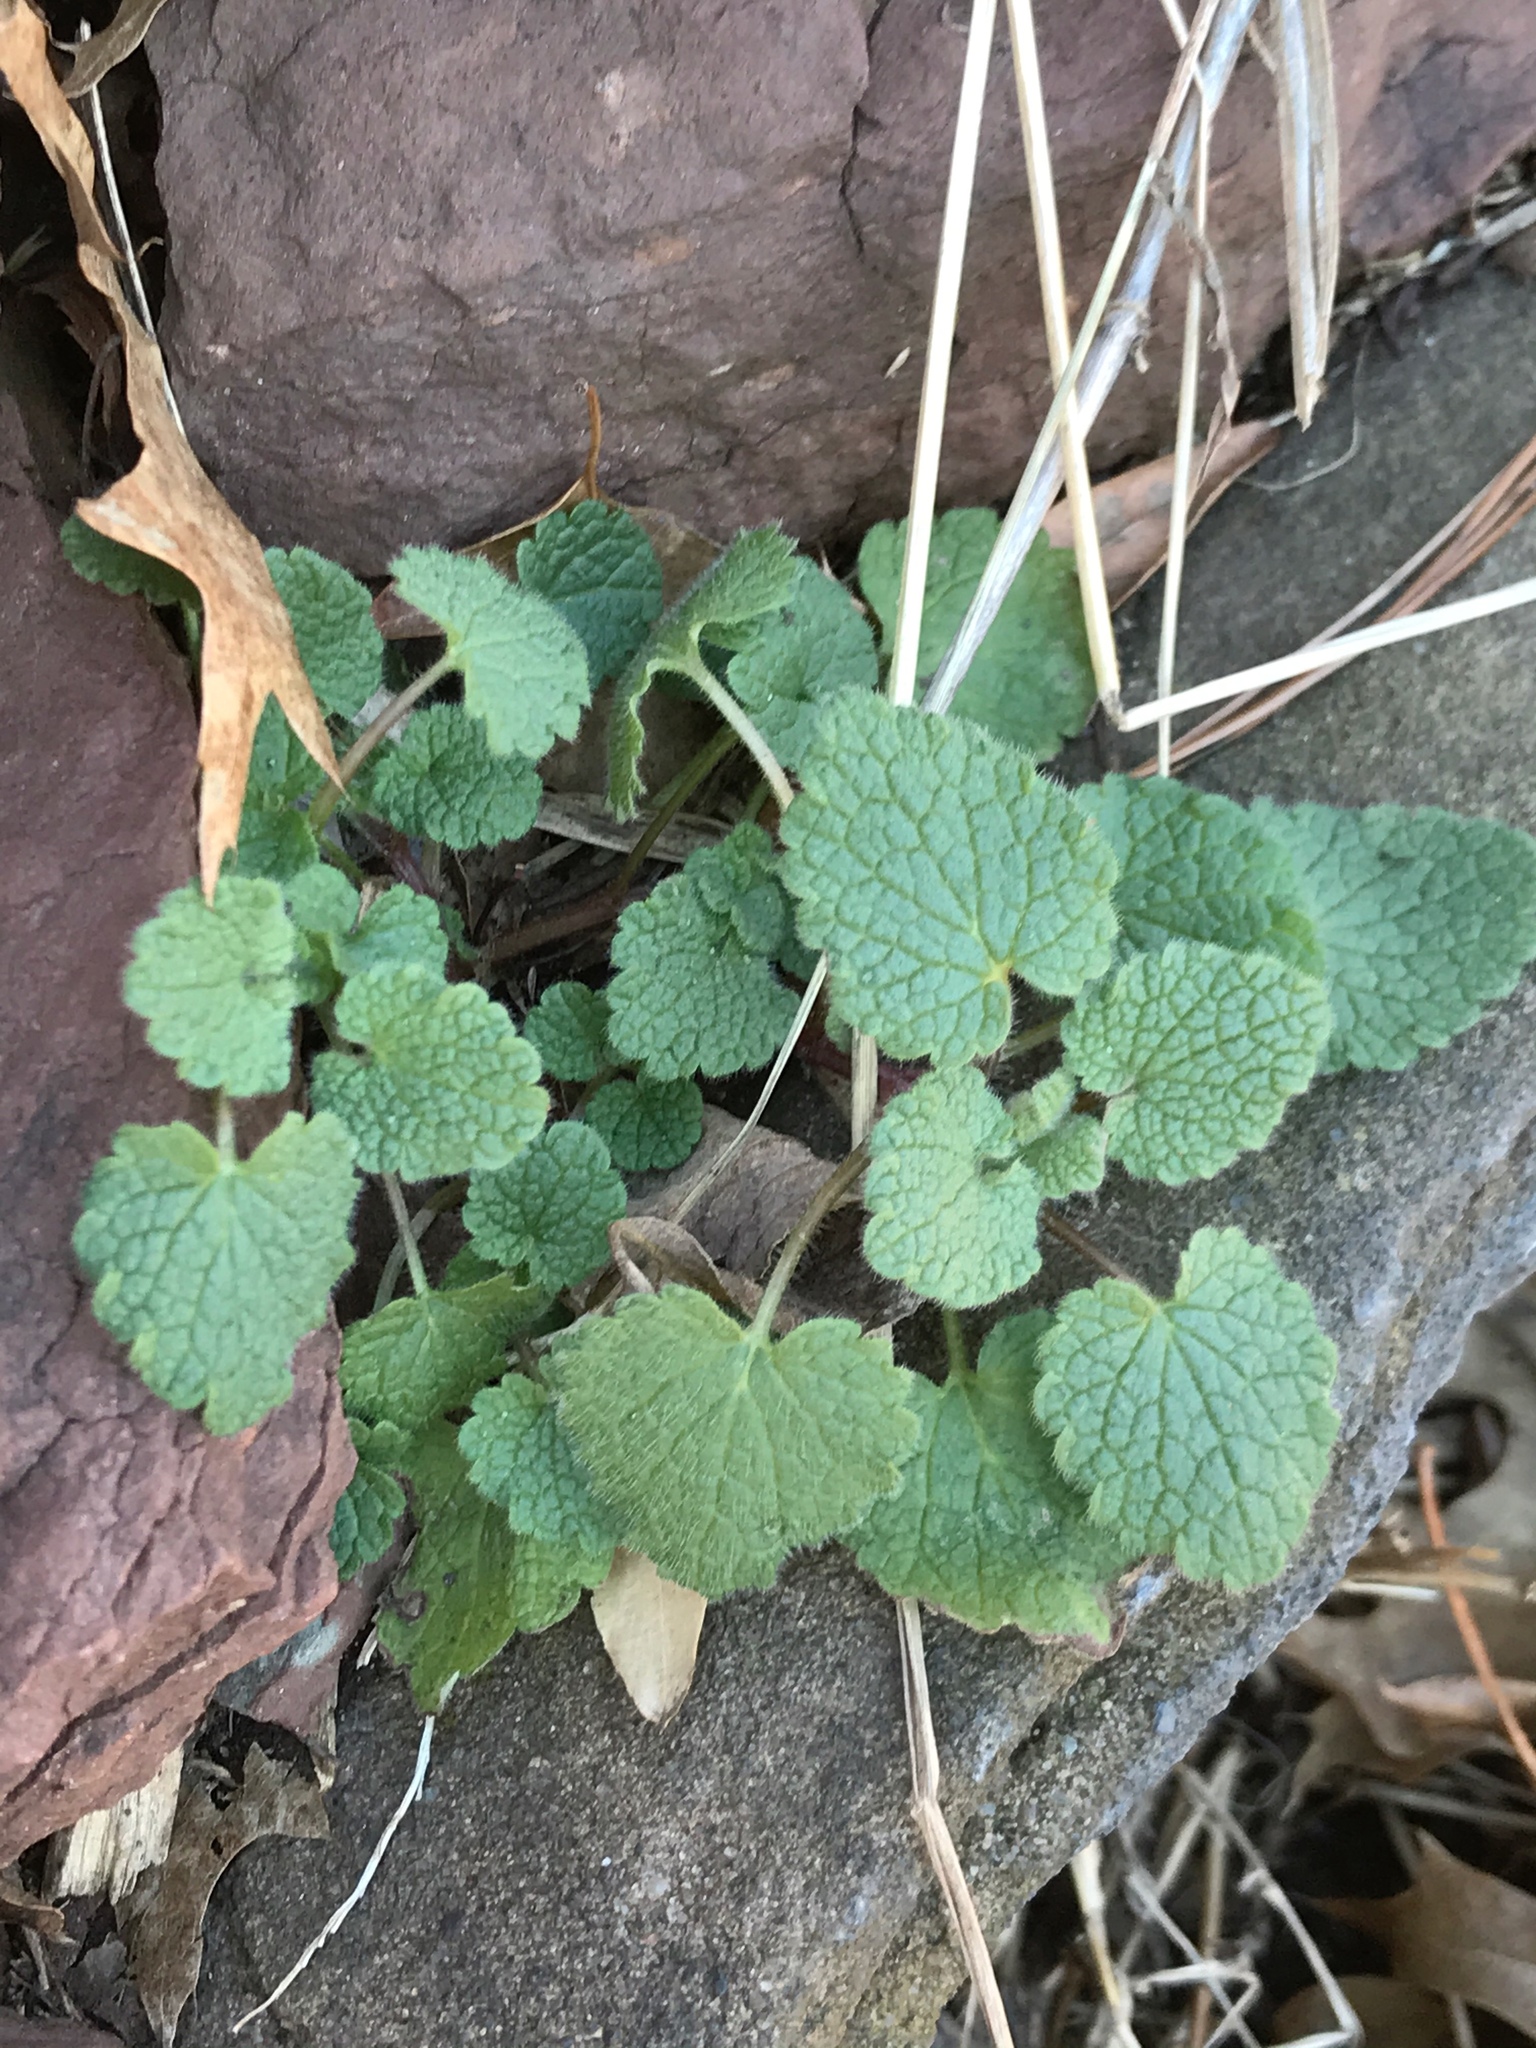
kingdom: Plantae
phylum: Tracheophyta
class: Magnoliopsida
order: Lamiales
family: Lamiaceae
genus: Lamium
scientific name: Lamium purpureum
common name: Red dead-nettle
